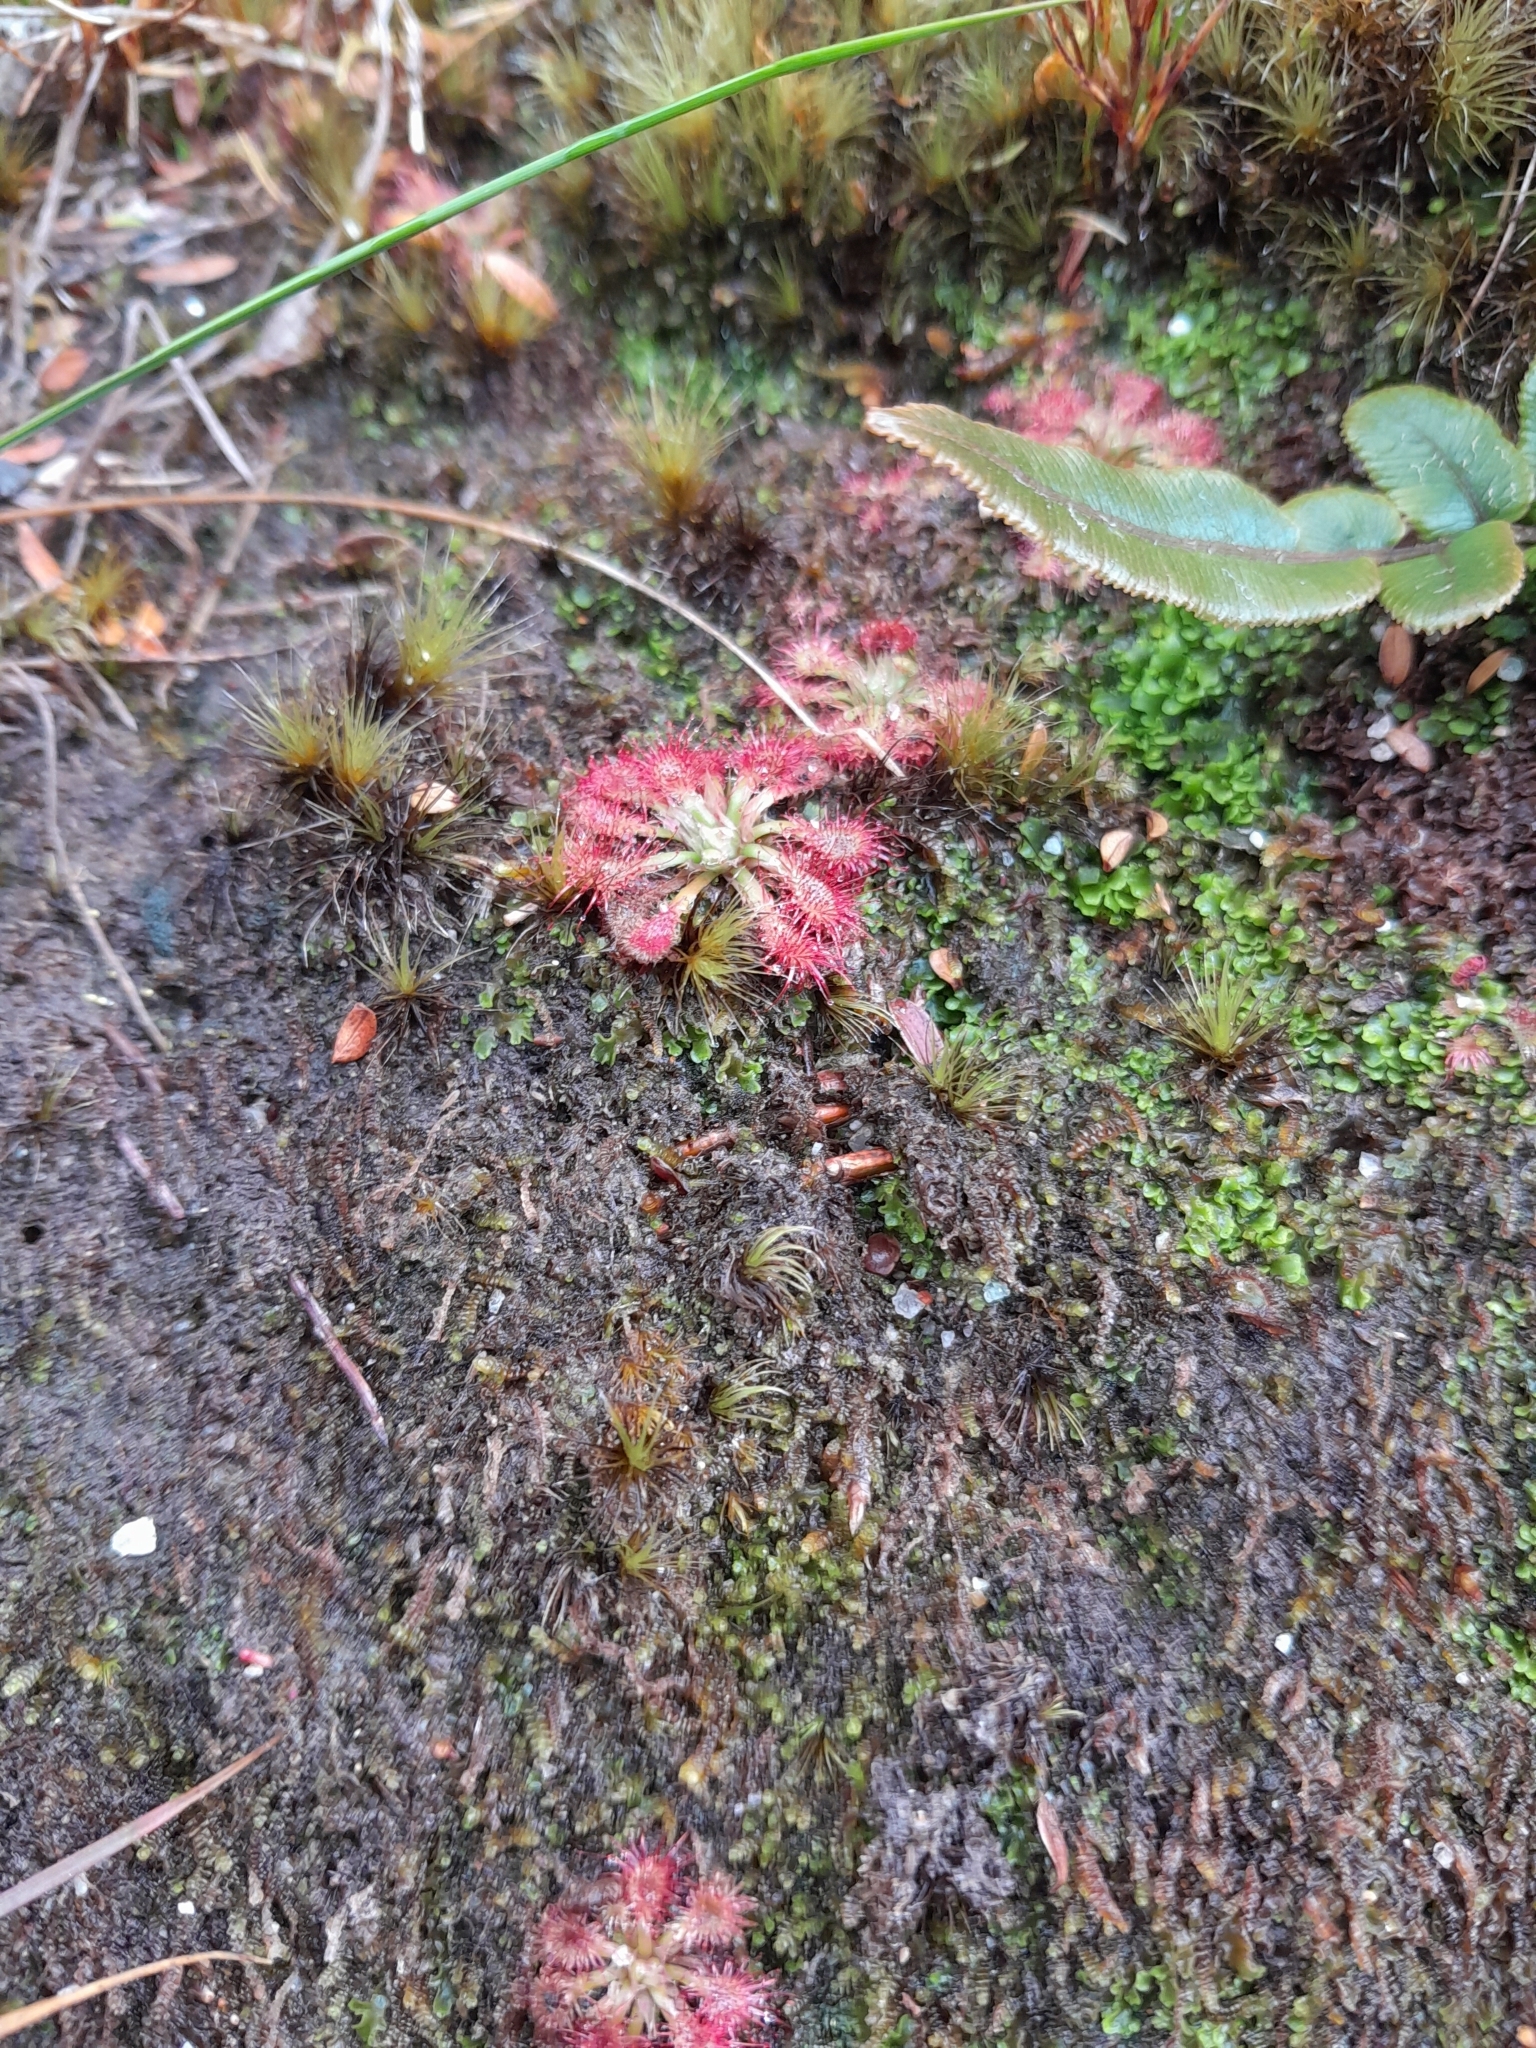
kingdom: Plantae
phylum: Tracheophyta
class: Magnoliopsida
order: Caryophyllales
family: Droseraceae
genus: Drosera
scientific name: Drosera spatulata
